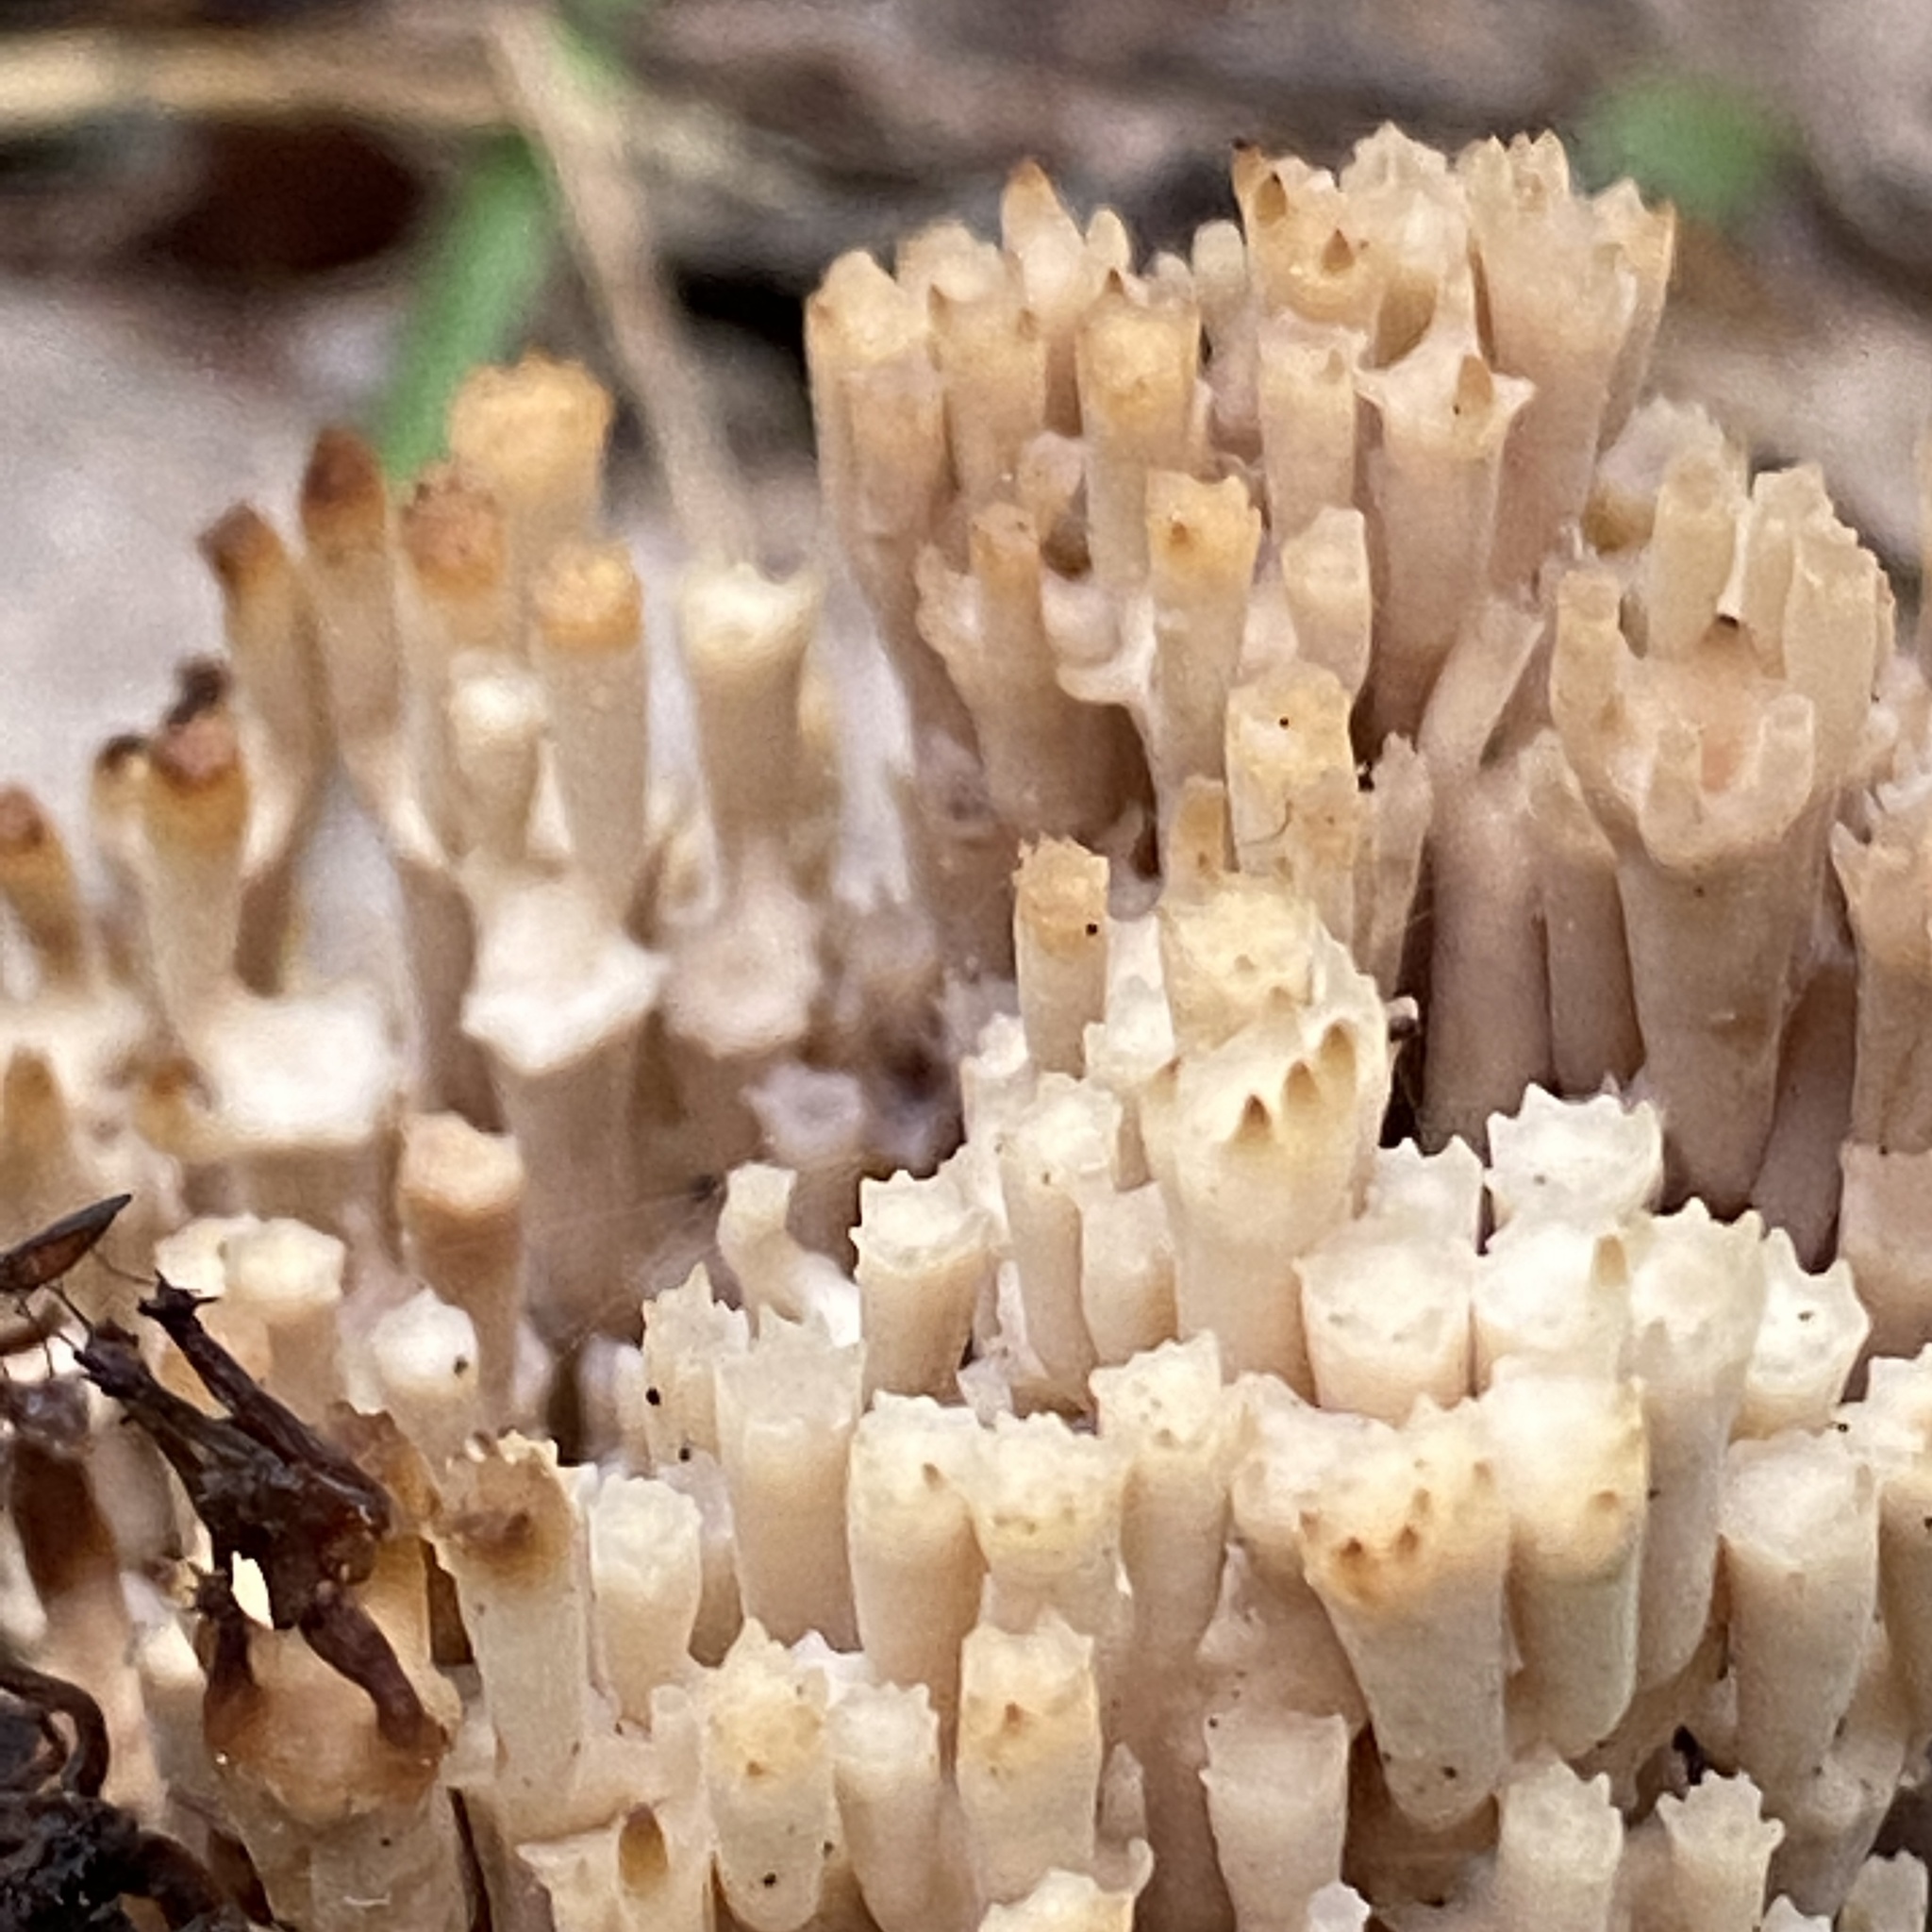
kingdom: Fungi
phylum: Basidiomycota
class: Agaricomycetes
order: Russulales
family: Auriscalpiaceae
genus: Artomyces
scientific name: Artomyces pyxidatus
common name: Crown-tipped coral fungus
